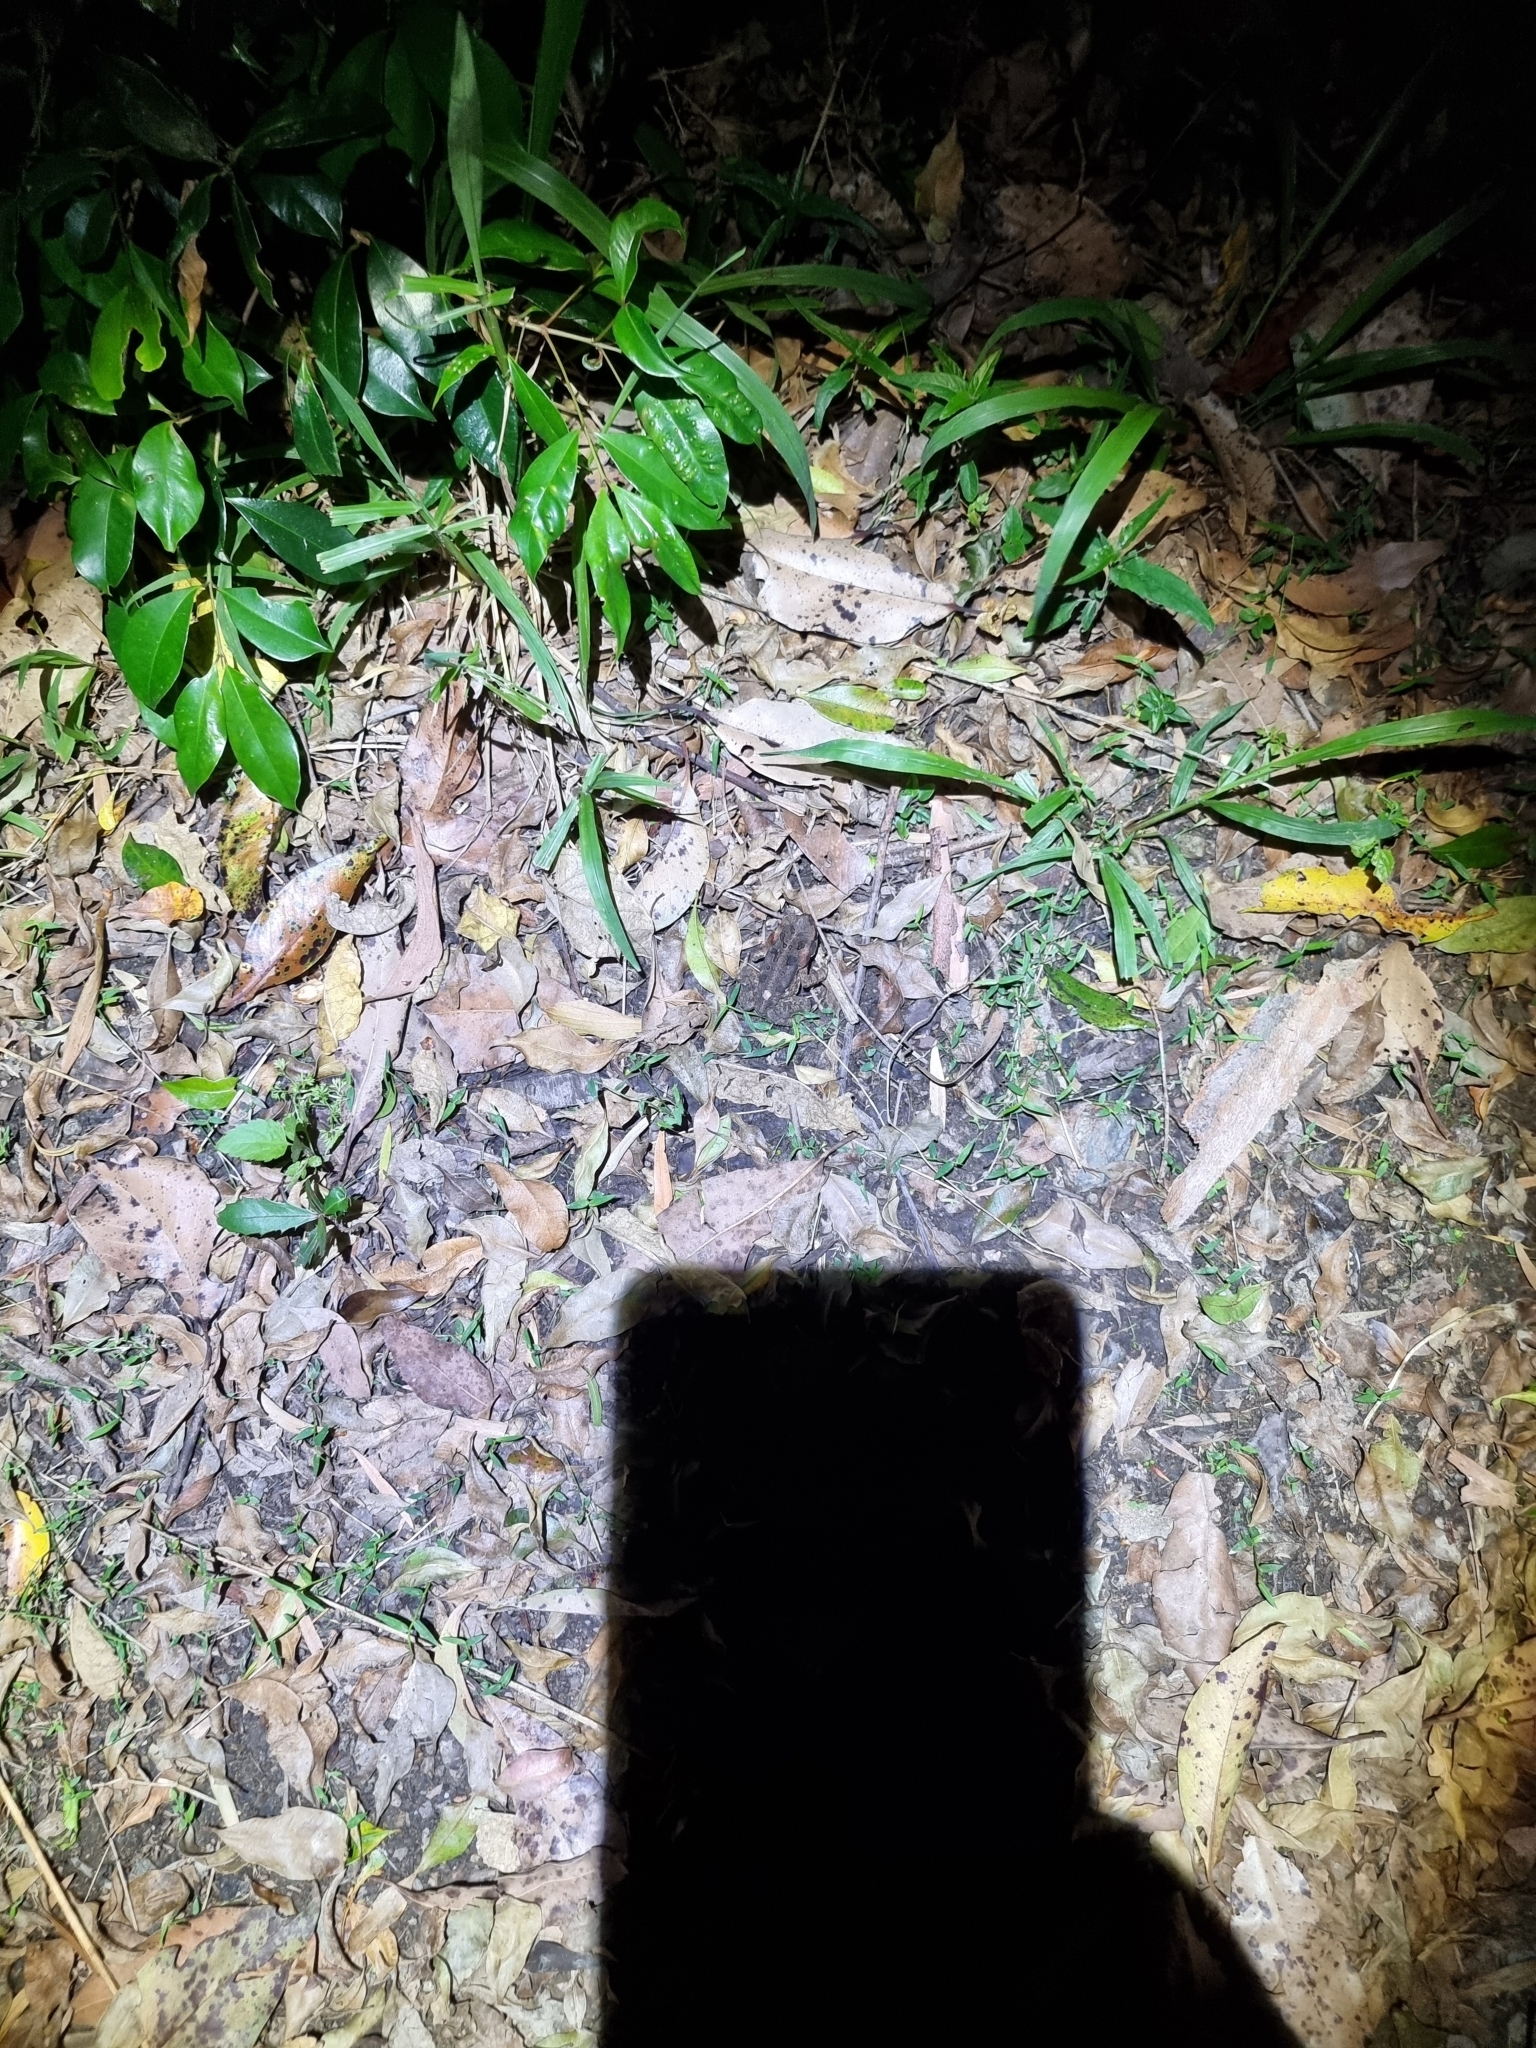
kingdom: Animalia
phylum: Chordata
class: Amphibia
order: Anura
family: Bufonidae
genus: Rhinella
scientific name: Rhinella marina
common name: Cane toad
